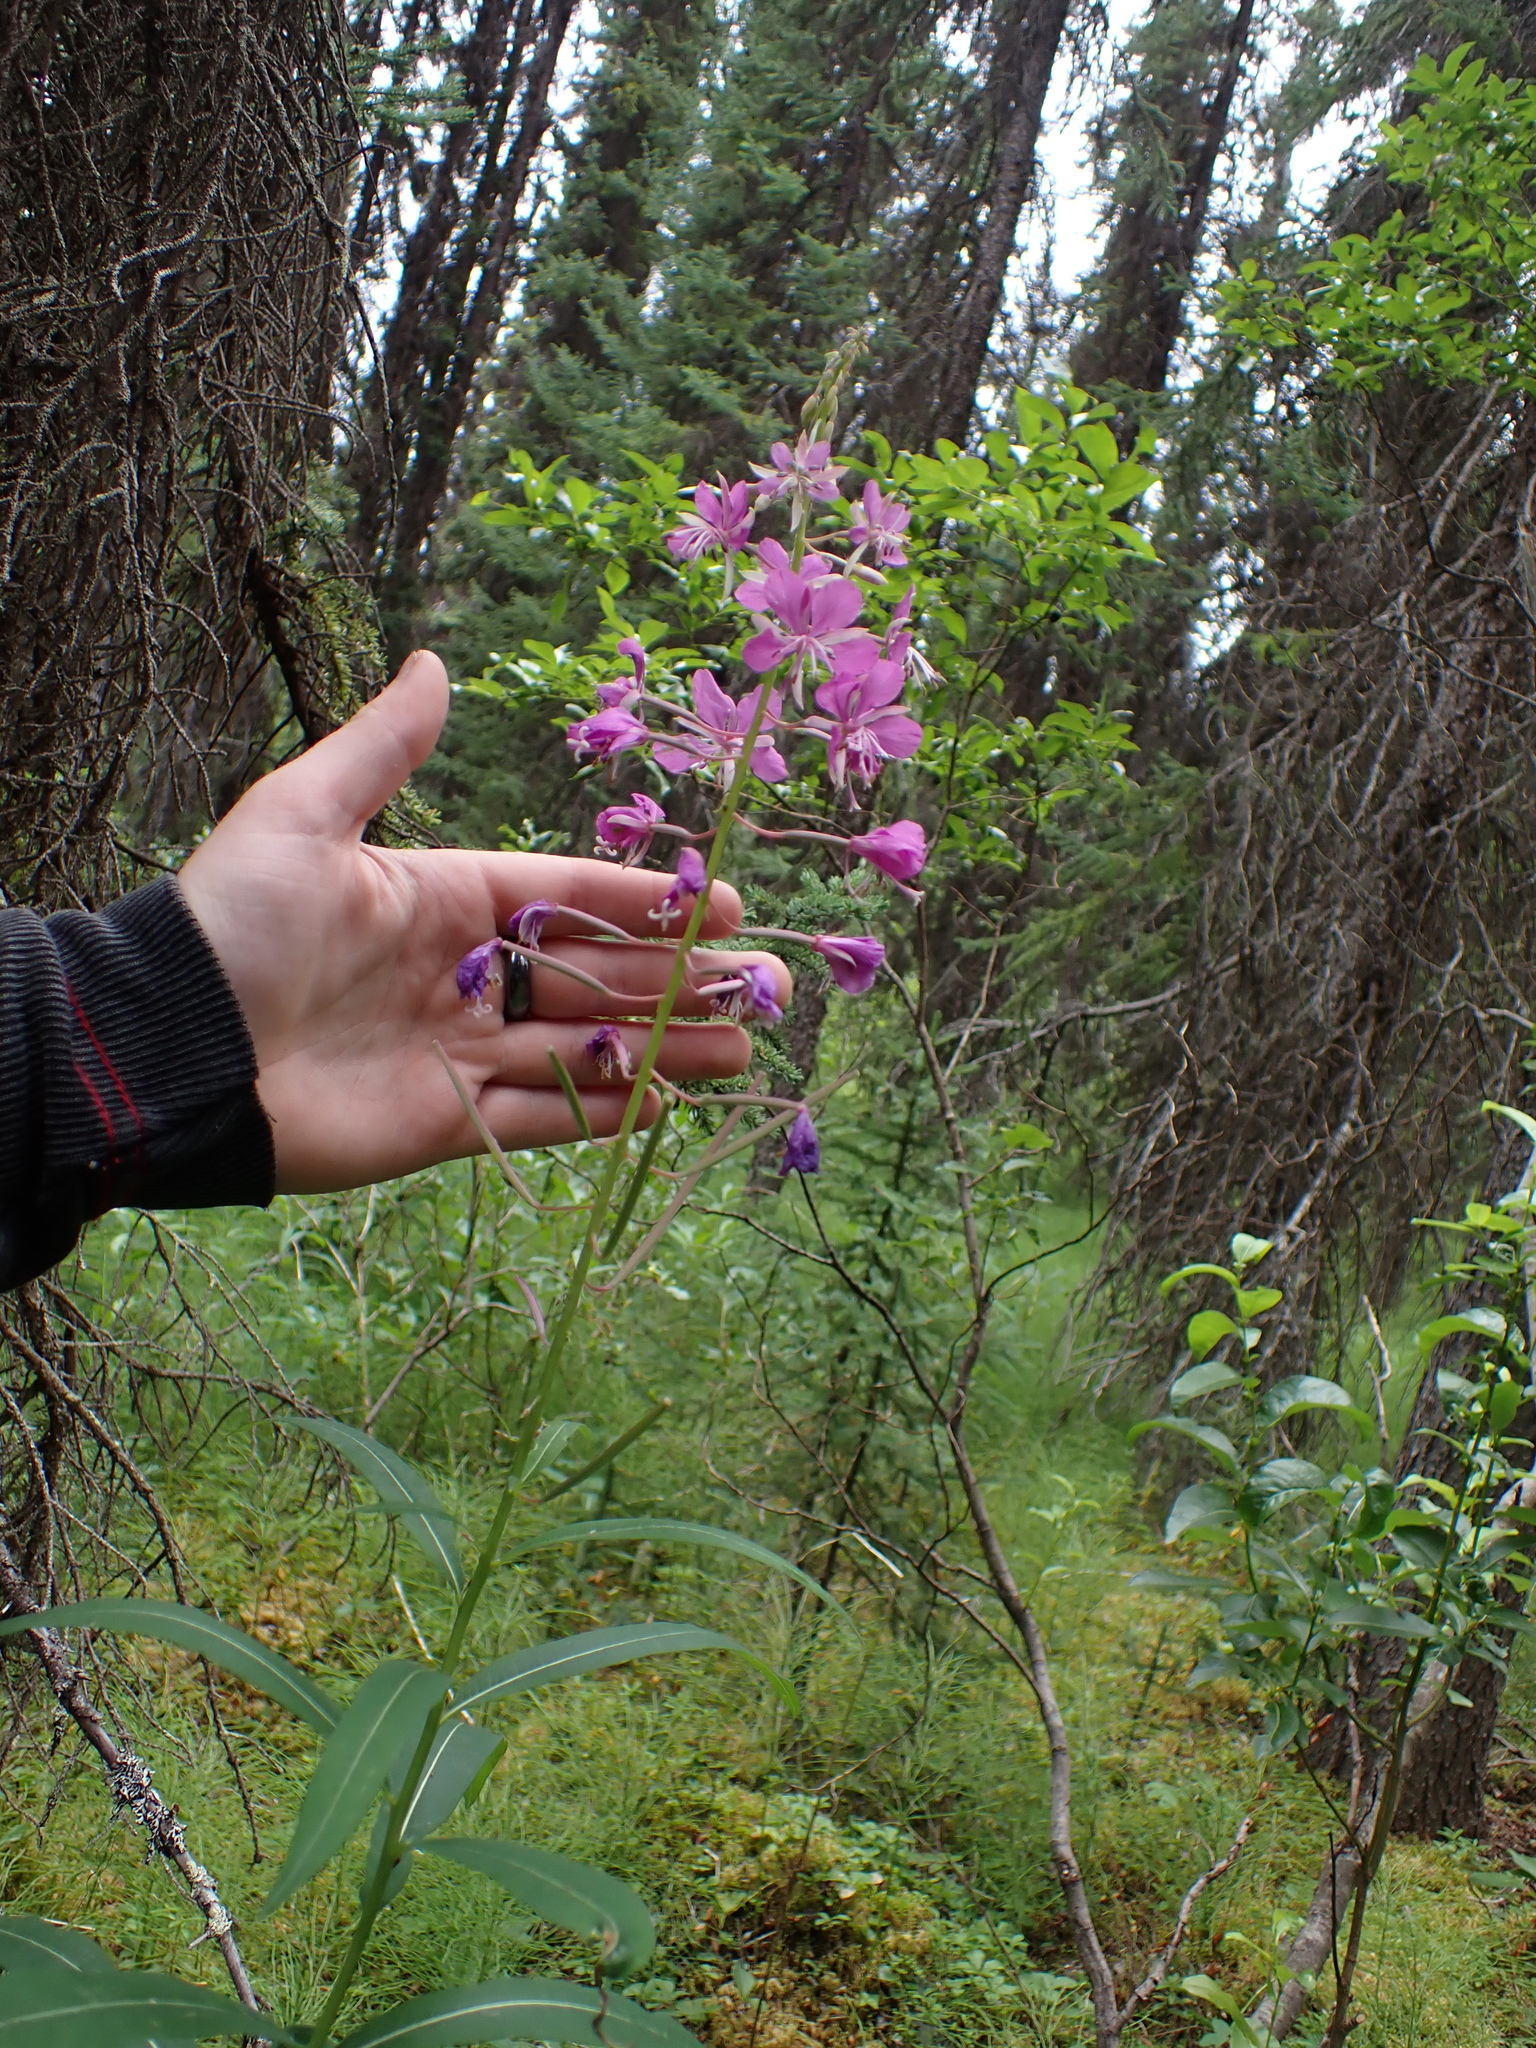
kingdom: Plantae
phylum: Tracheophyta
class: Magnoliopsida
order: Myrtales
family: Onagraceae
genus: Chamaenerion
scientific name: Chamaenerion angustifolium
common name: Fireweed
